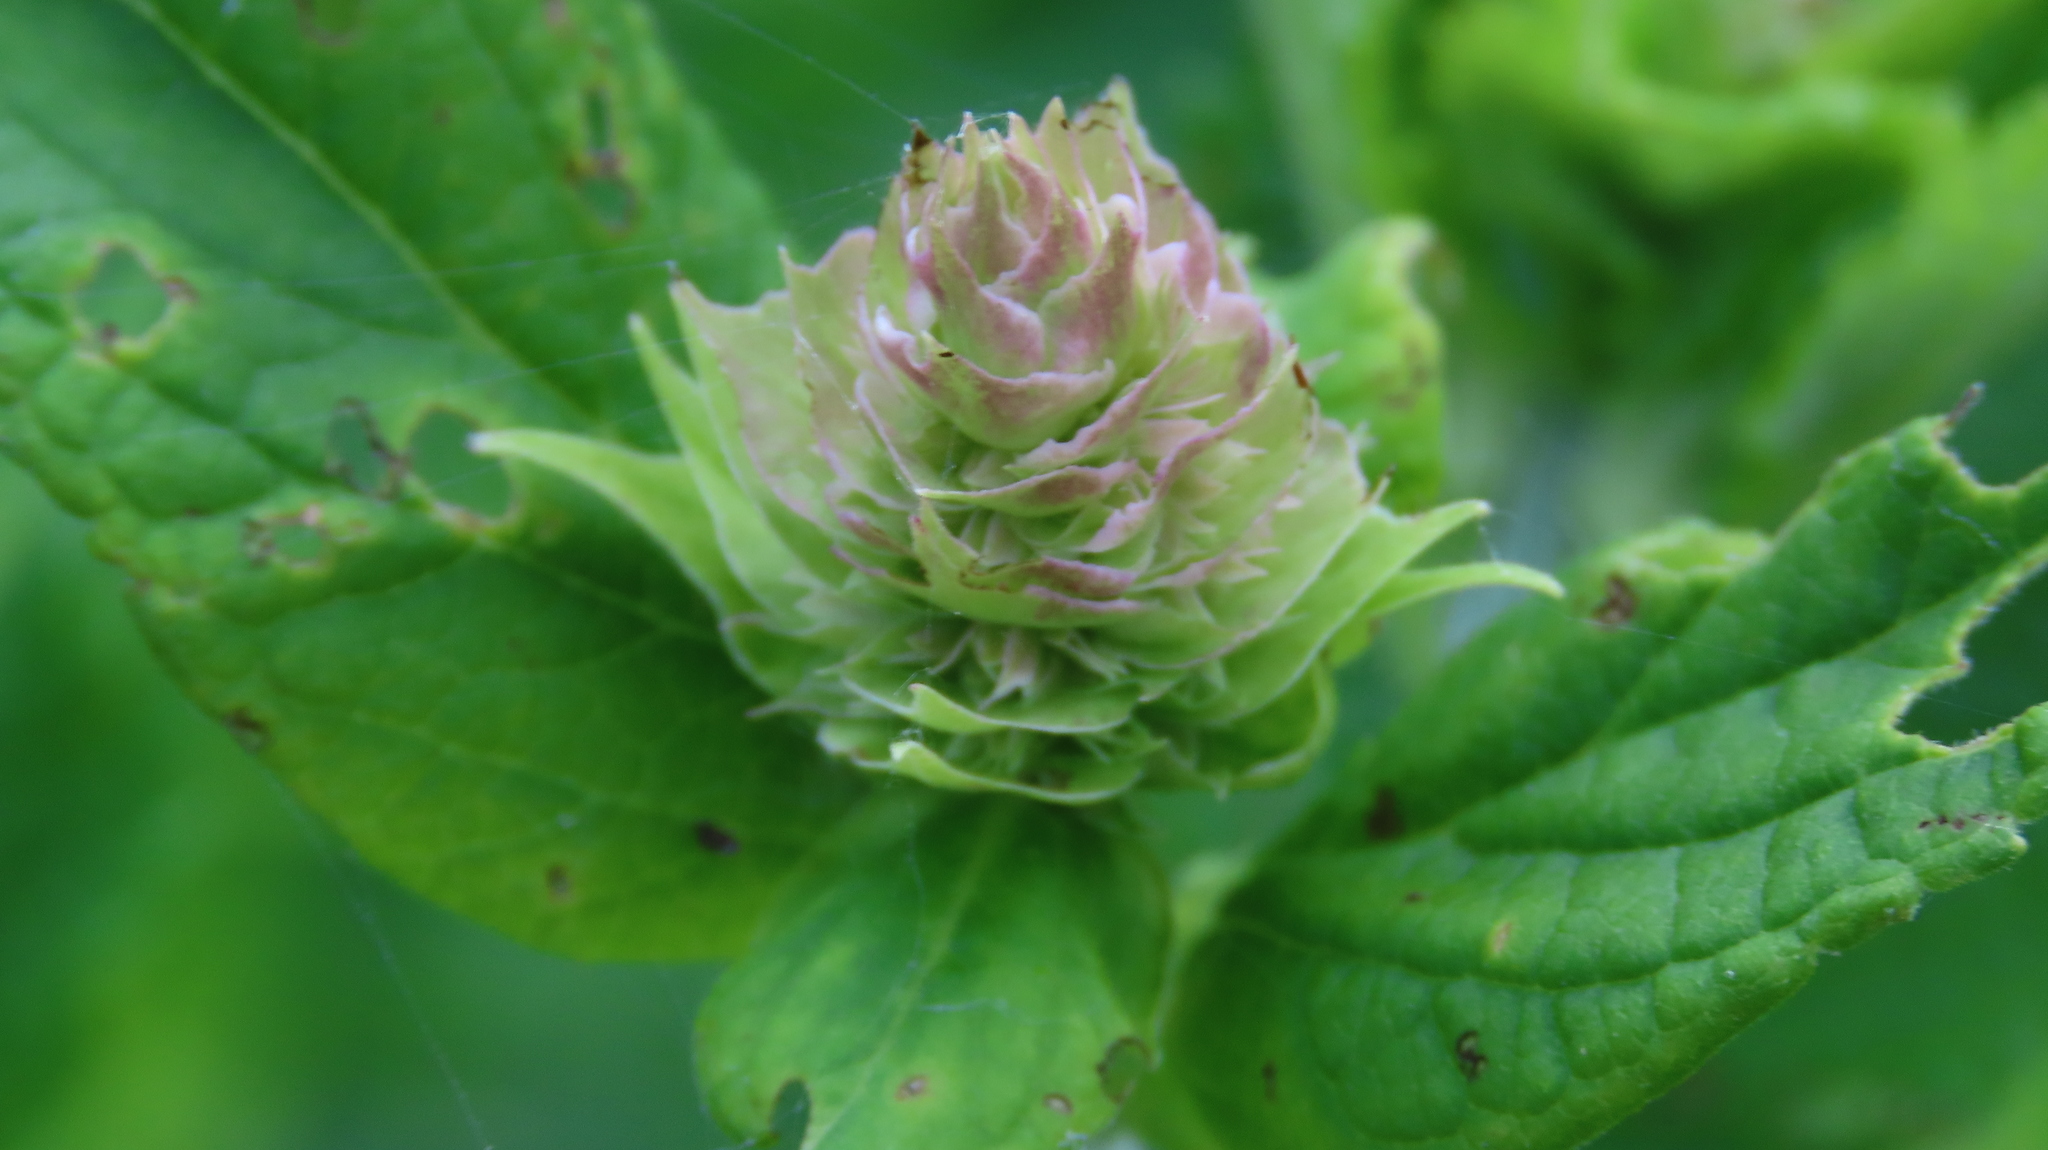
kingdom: Plantae
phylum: Tracheophyta
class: Magnoliopsida
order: Lamiales
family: Lamiaceae
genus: Agastache
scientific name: Agastache foeniculum
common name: Anise hyssop
